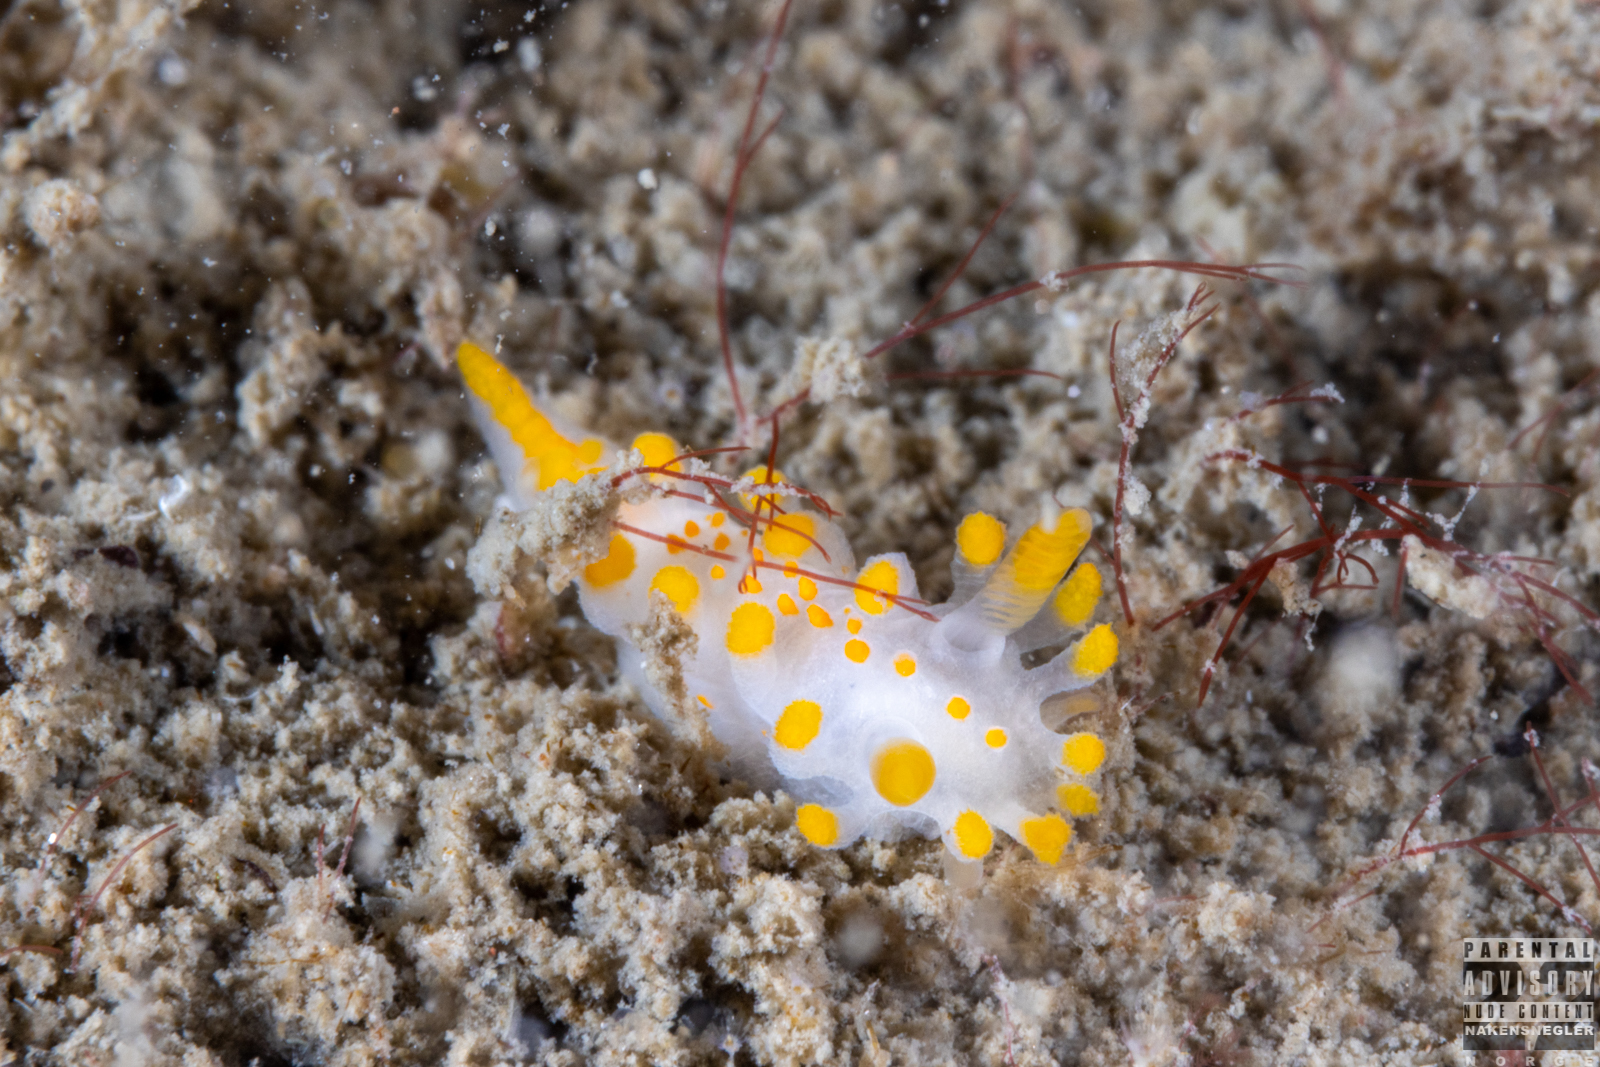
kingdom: Animalia
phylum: Mollusca
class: Gastropoda
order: Nudibranchia
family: Polyceridae
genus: Limacia
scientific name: Limacia clavigera
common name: Orange-clubbed sea slug
